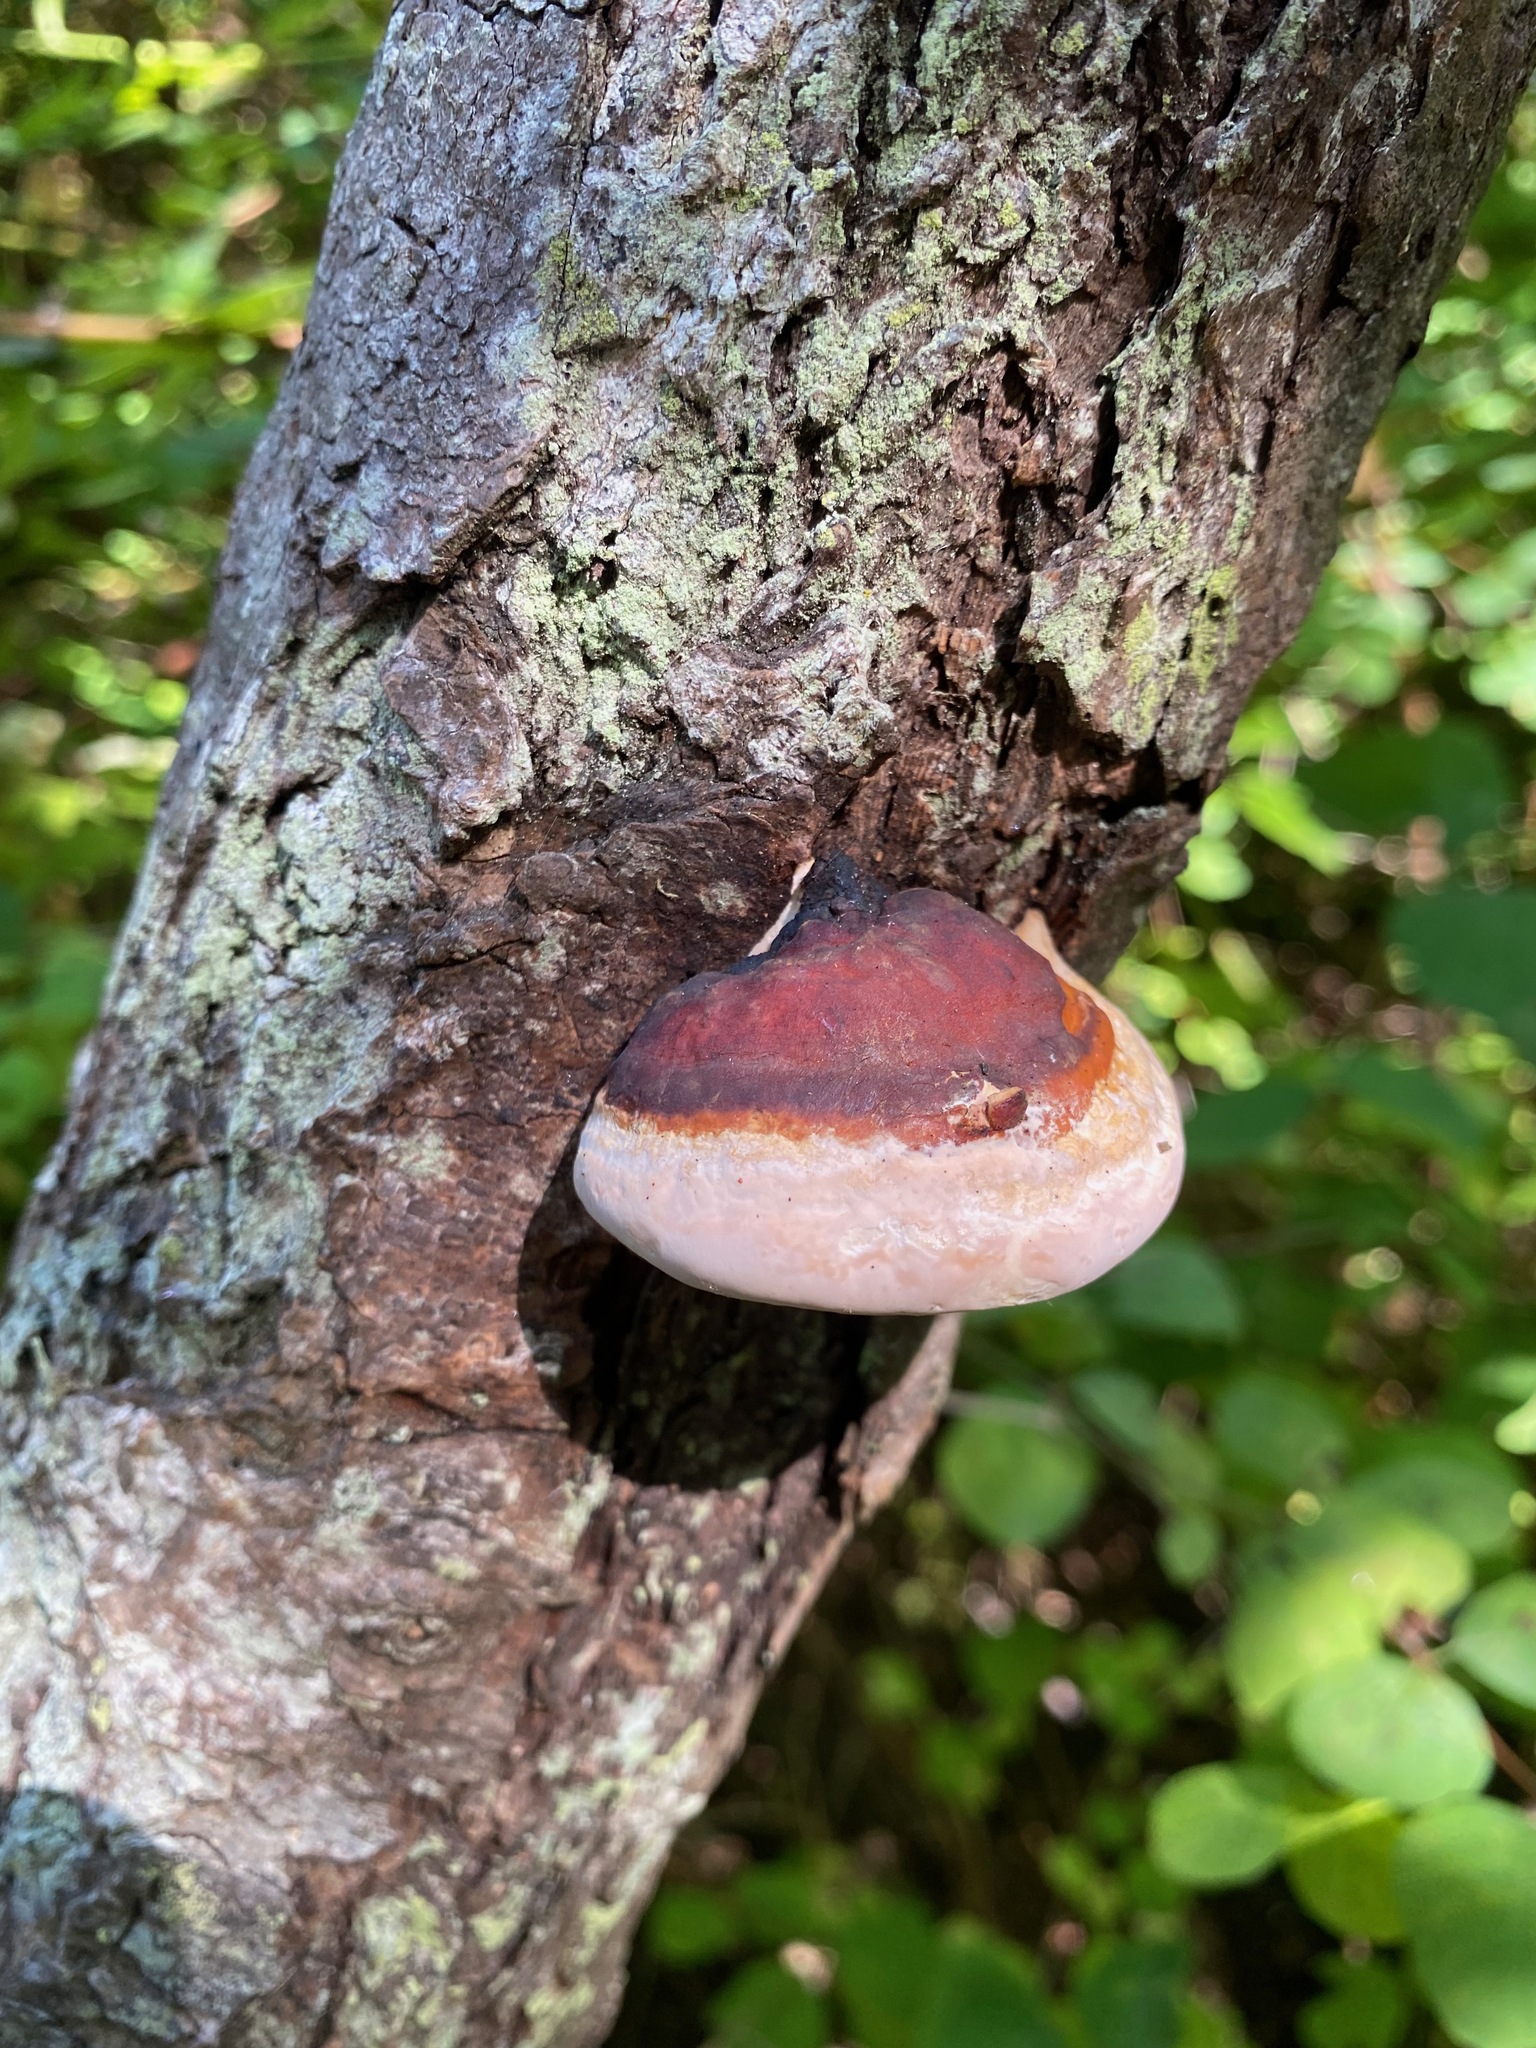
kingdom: Fungi
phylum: Basidiomycota
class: Agaricomycetes
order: Polyporales
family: Fomitopsidaceae
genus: Fomitopsis
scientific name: Fomitopsis mounceae
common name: Northern red belt
